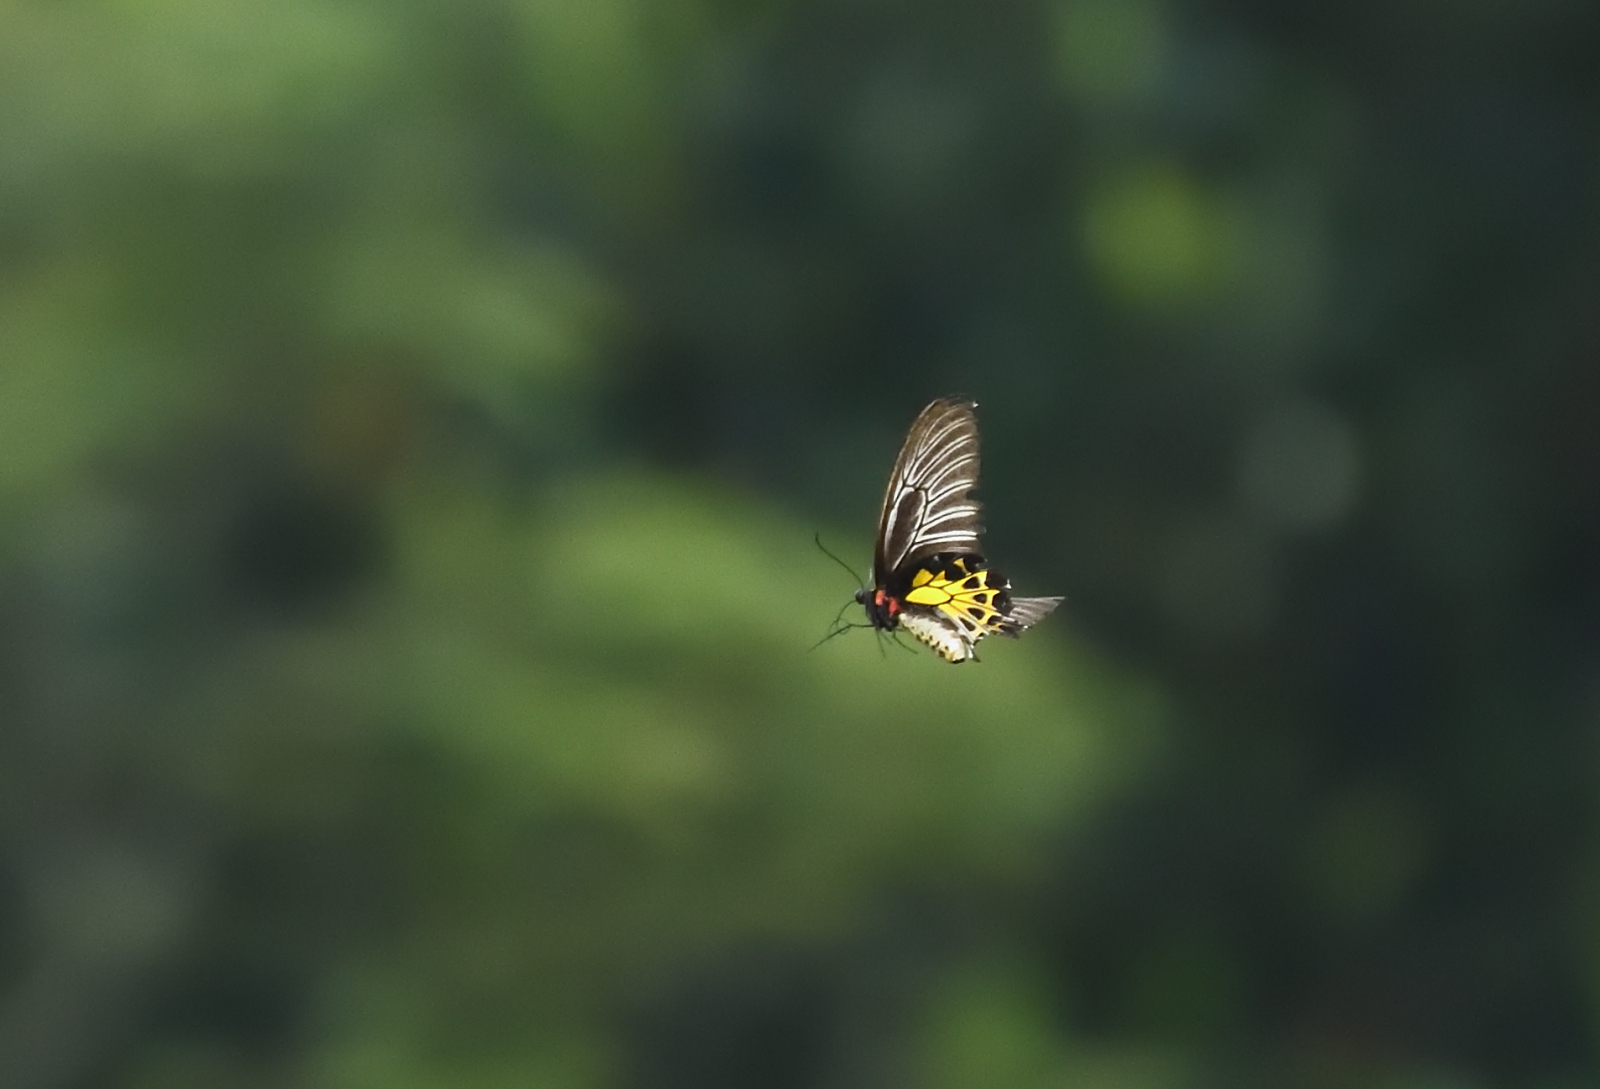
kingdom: Animalia
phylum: Arthropoda
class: Insecta
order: Lepidoptera
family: Papilionidae
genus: Troides
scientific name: Troides minos
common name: Malabar birdwing
